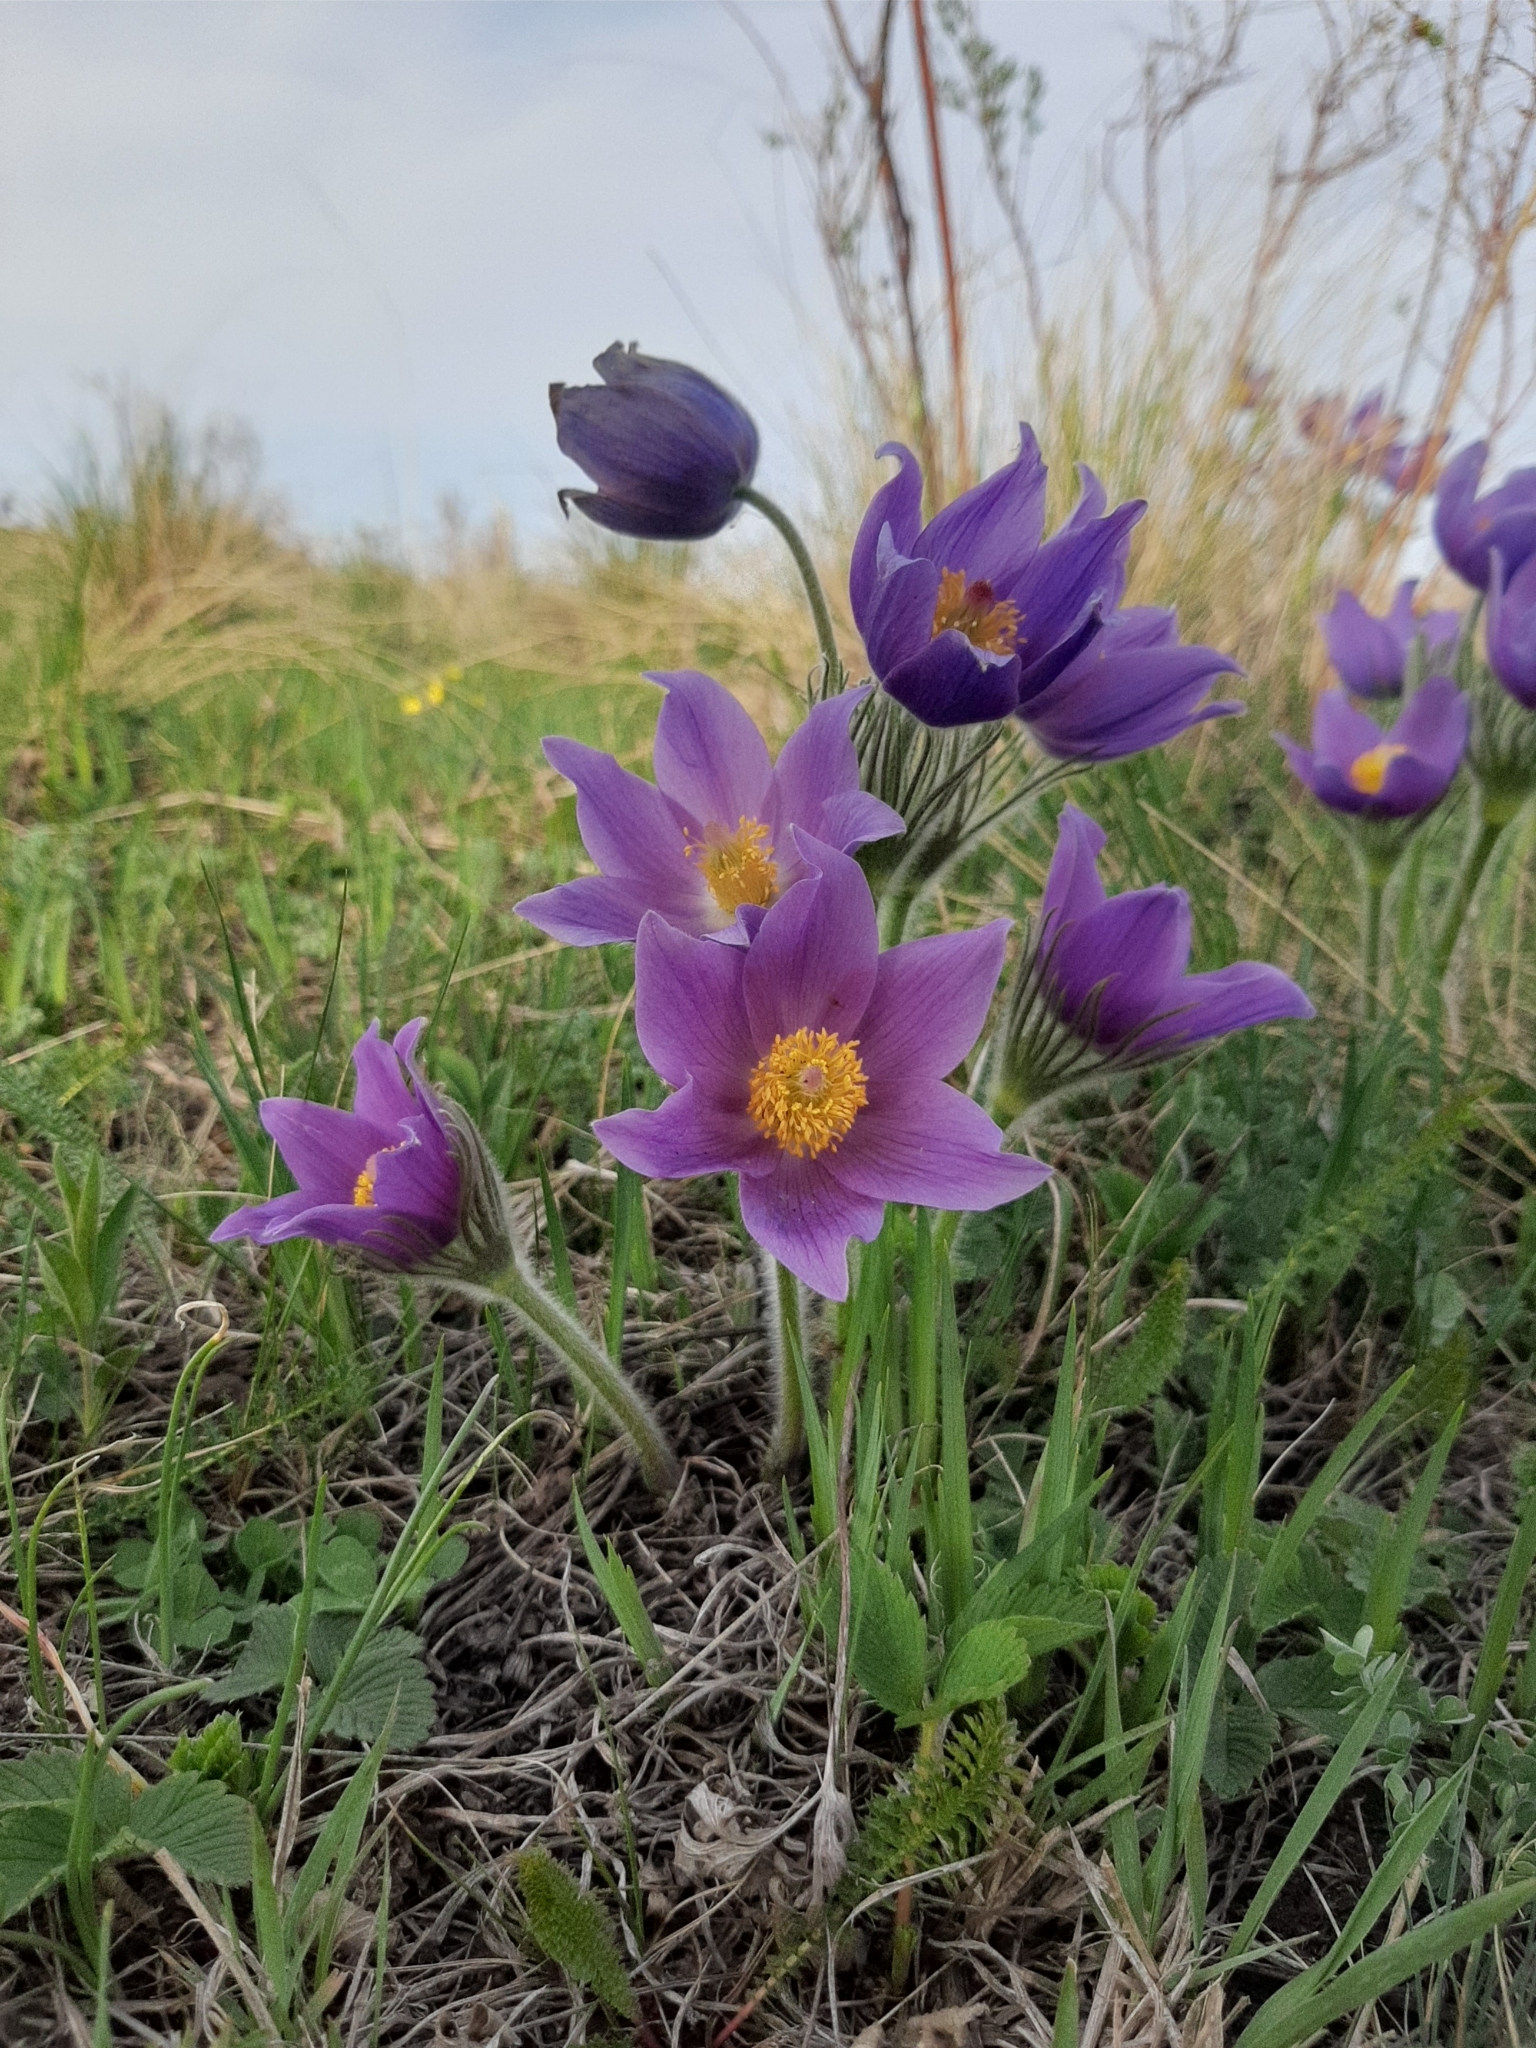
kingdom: Plantae
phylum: Tracheophyta
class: Magnoliopsida
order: Ranunculales
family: Ranunculaceae
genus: Pulsatilla
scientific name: Pulsatilla patens
